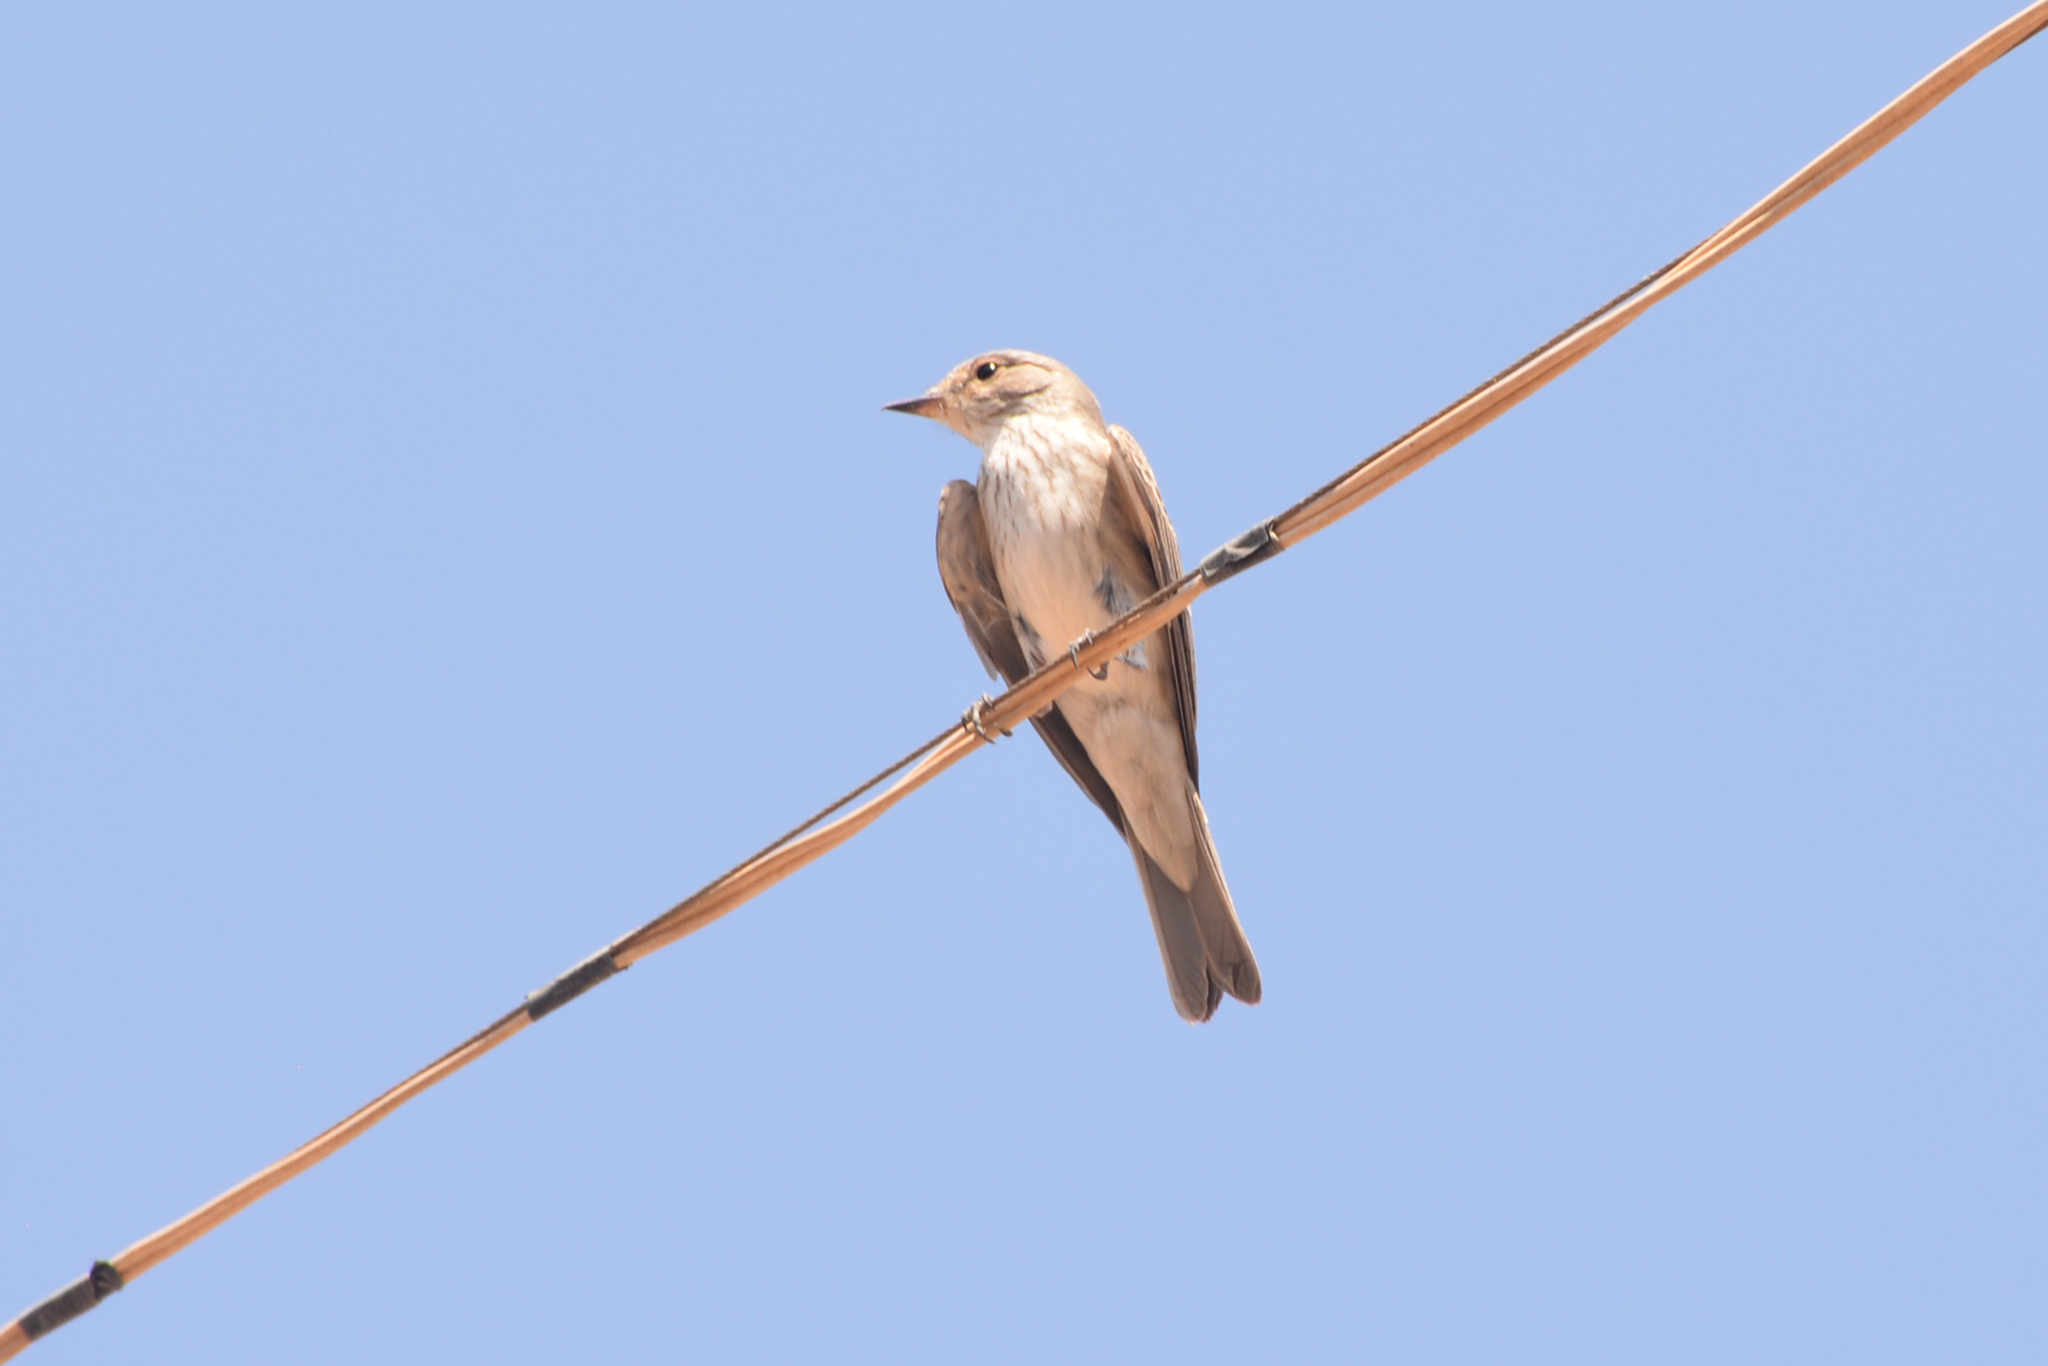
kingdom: Animalia
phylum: Chordata
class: Aves
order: Passeriformes
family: Muscicapidae
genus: Muscicapa
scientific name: Muscicapa striata
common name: Spotted flycatcher
